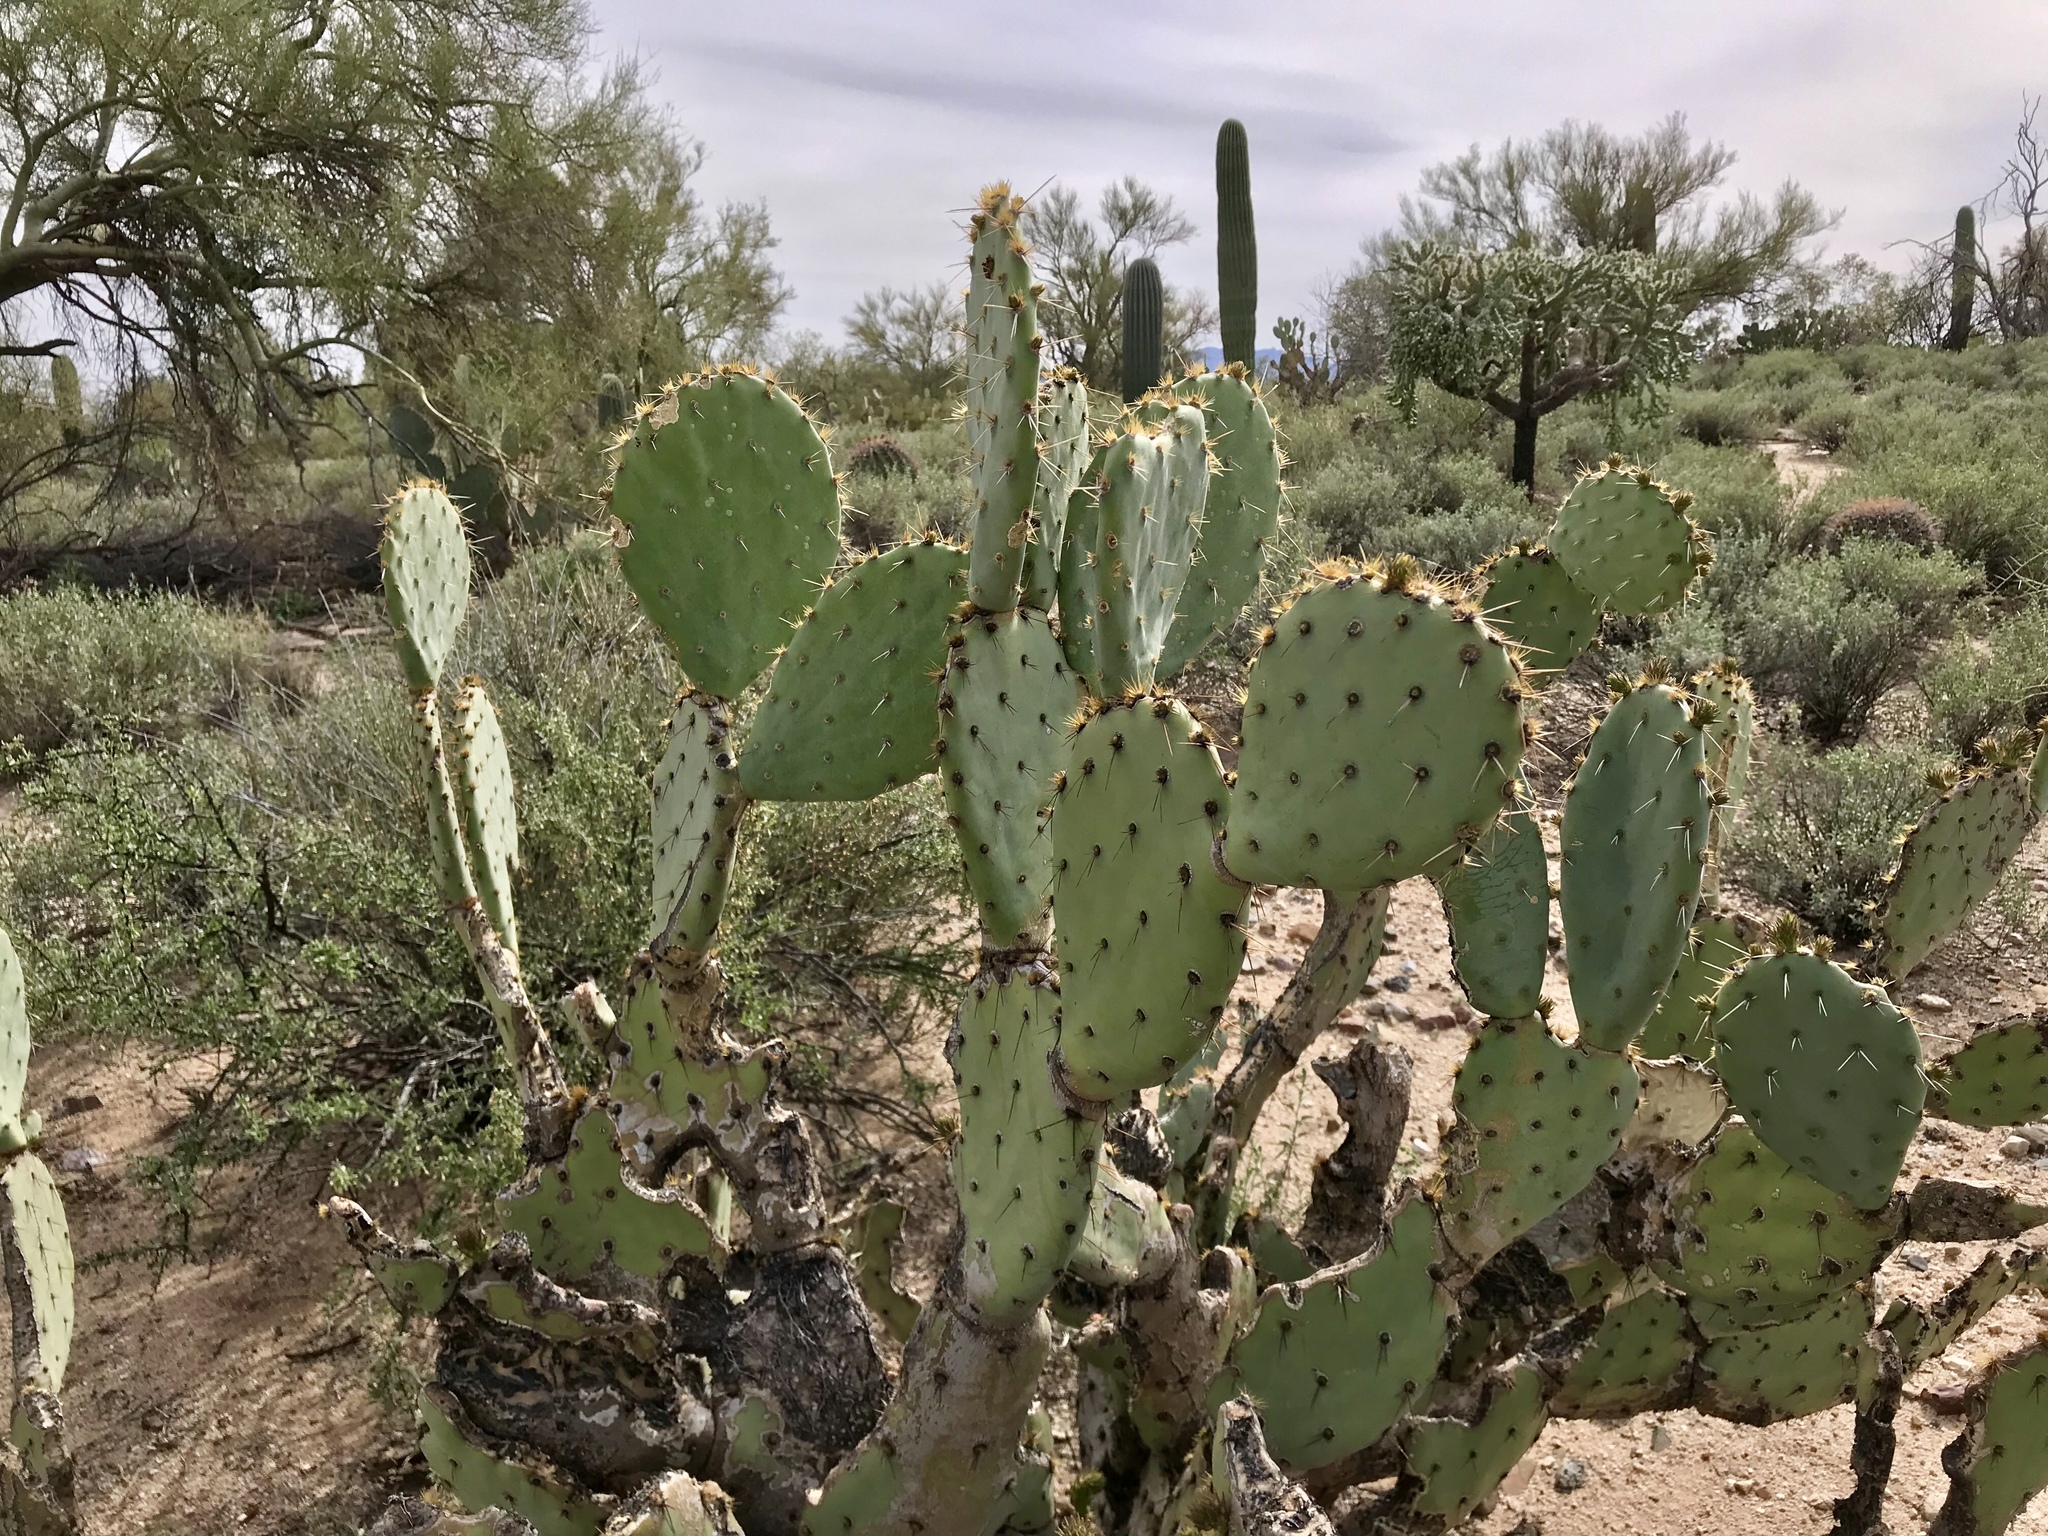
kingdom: Plantae
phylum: Tracheophyta
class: Magnoliopsida
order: Caryophyllales
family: Cactaceae
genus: Opuntia
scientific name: Opuntia engelmannii
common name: Cactus-apple
